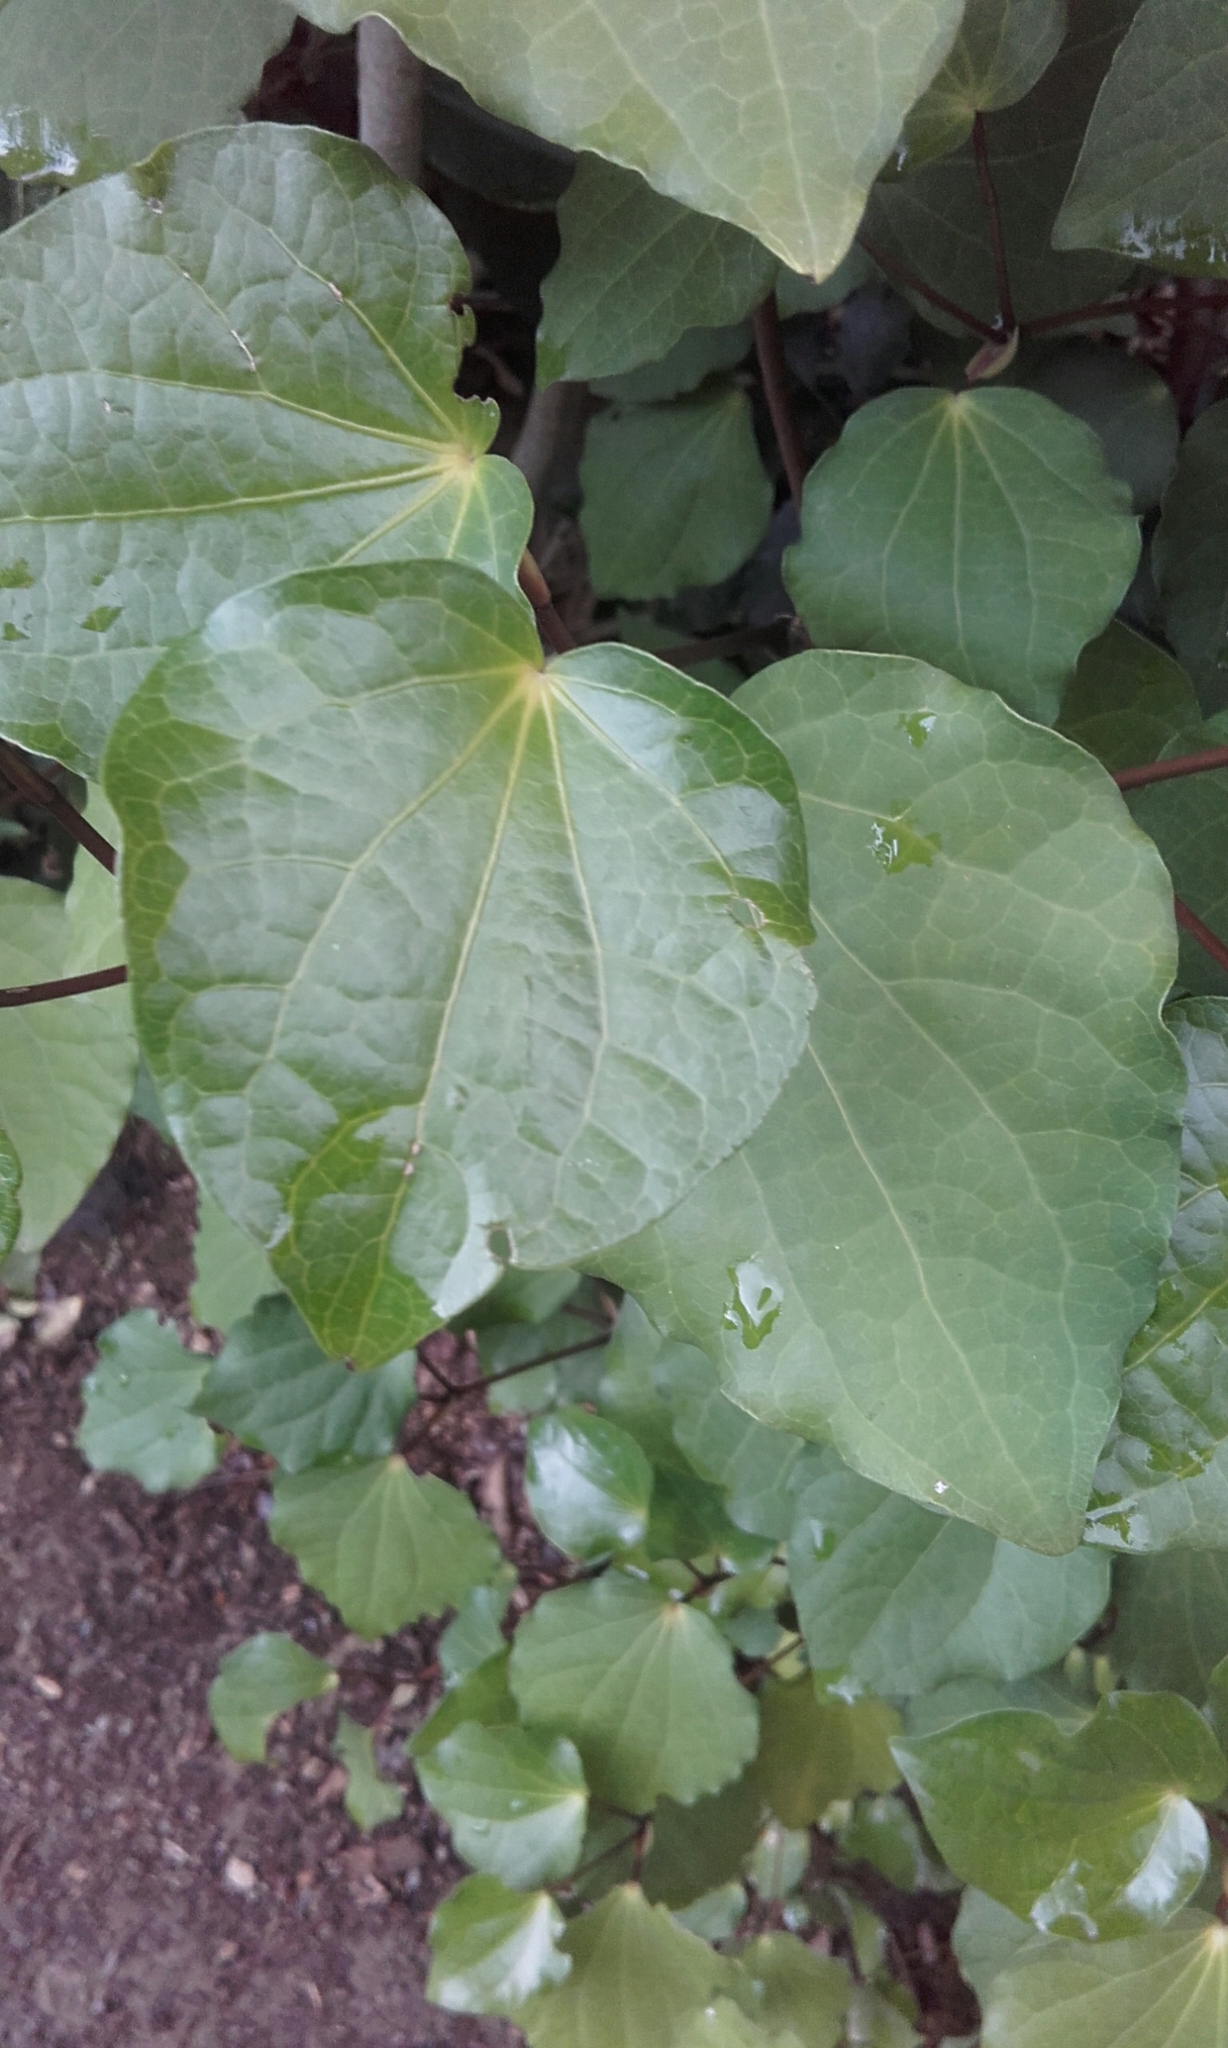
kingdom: Plantae
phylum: Tracheophyta
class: Magnoliopsida
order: Piperales
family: Piperaceae
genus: Macropiper
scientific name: Macropiper excelsum
